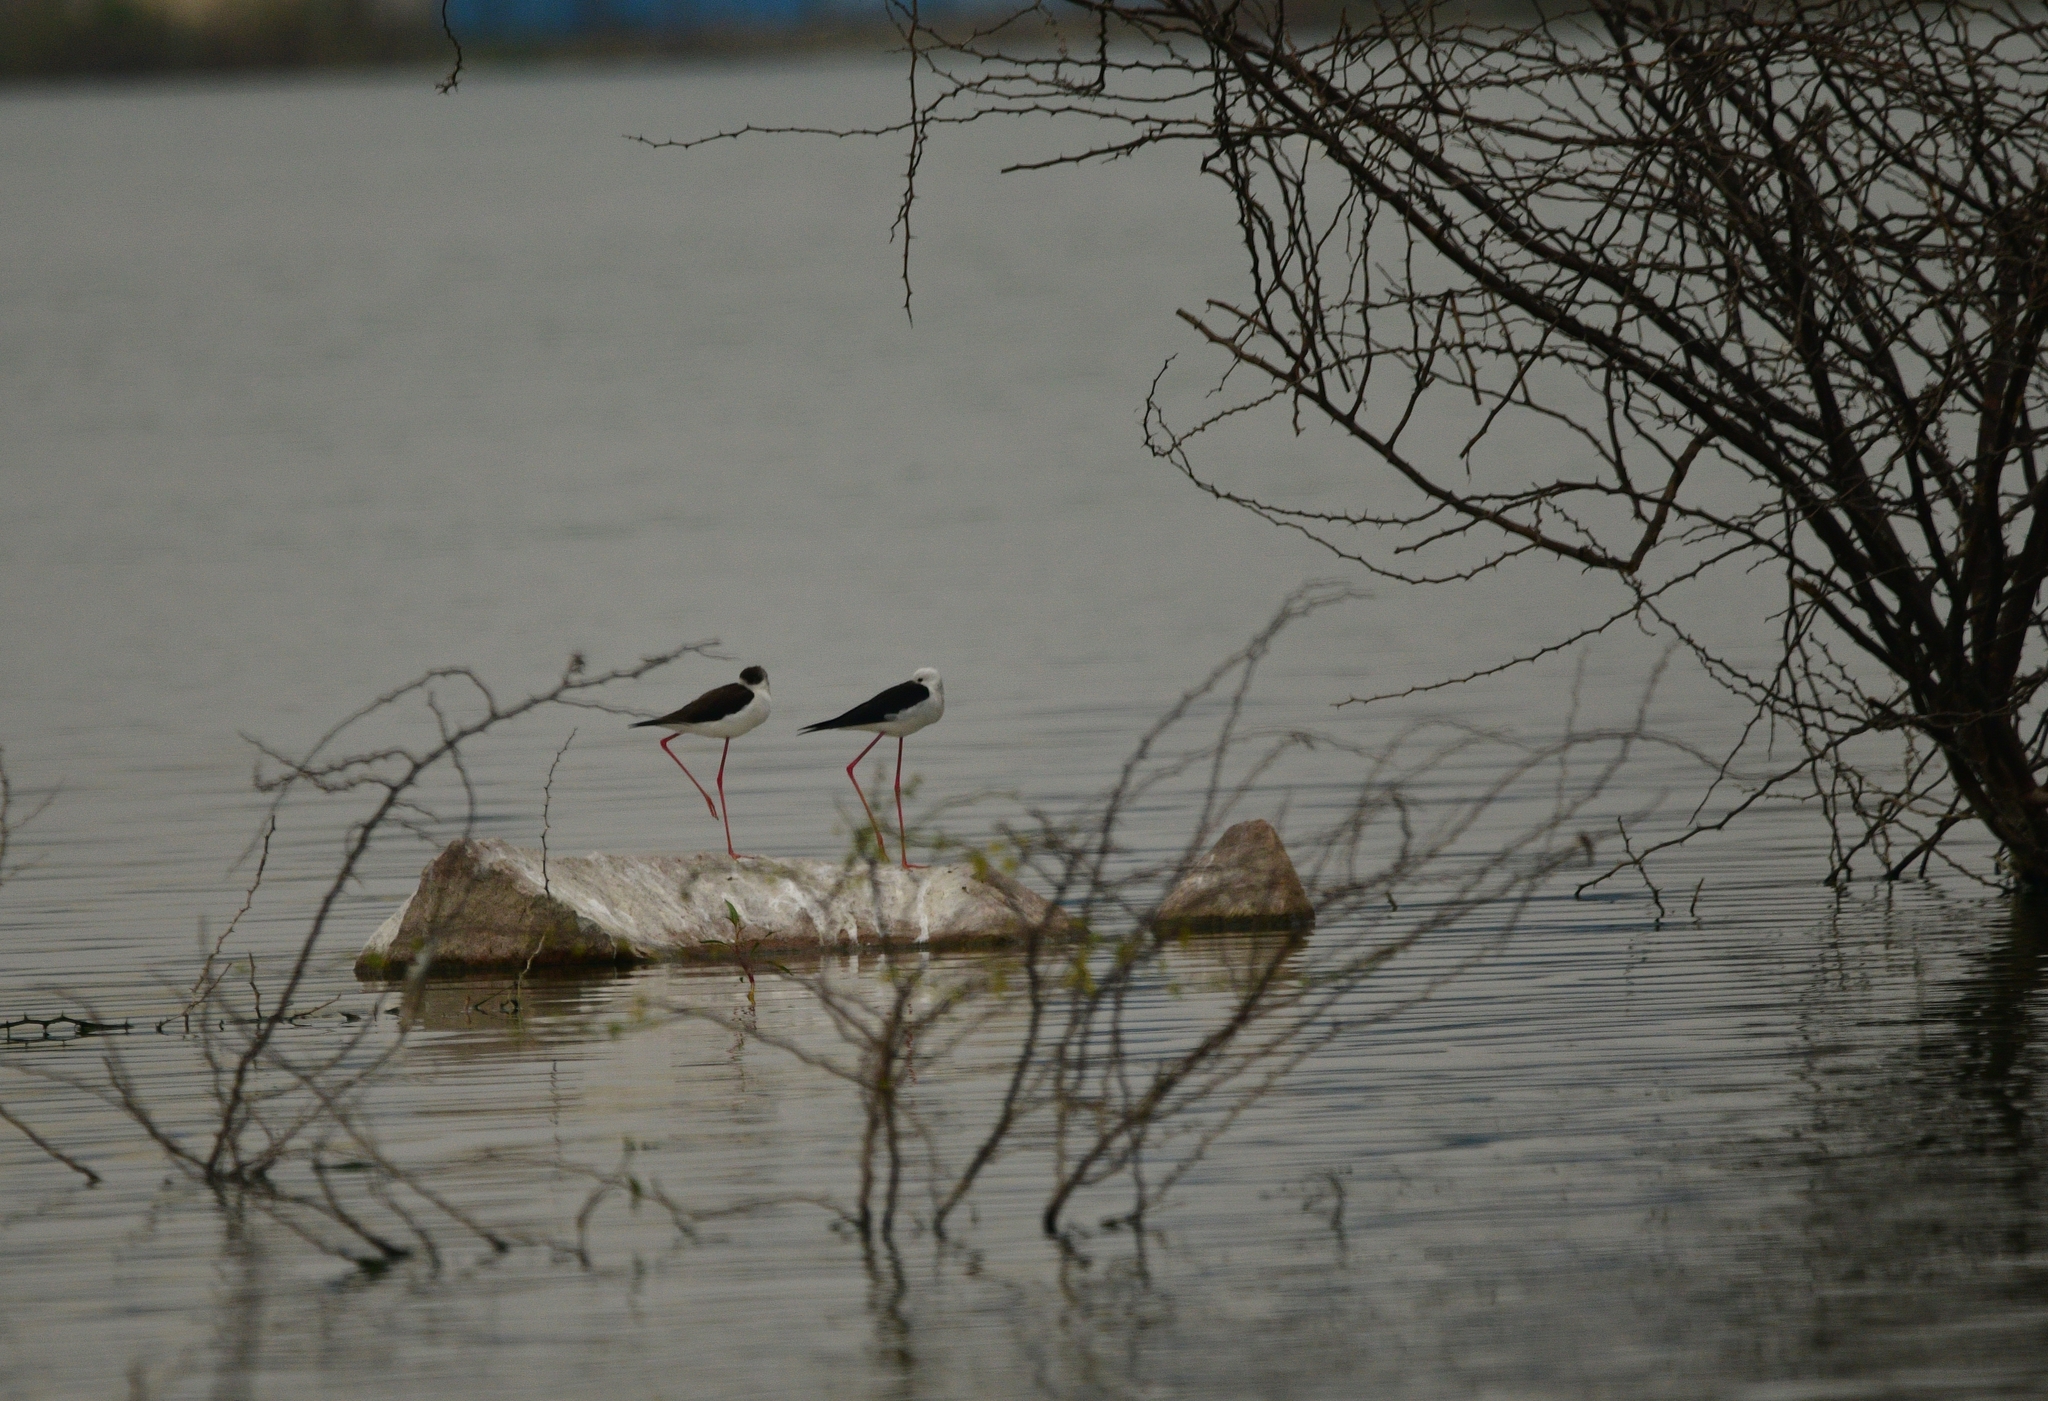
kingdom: Animalia
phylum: Chordata
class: Aves
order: Charadriiformes
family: Recurvirostridae
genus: Himantopus
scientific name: Himantopus himantopus
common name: Black-winged stilt
